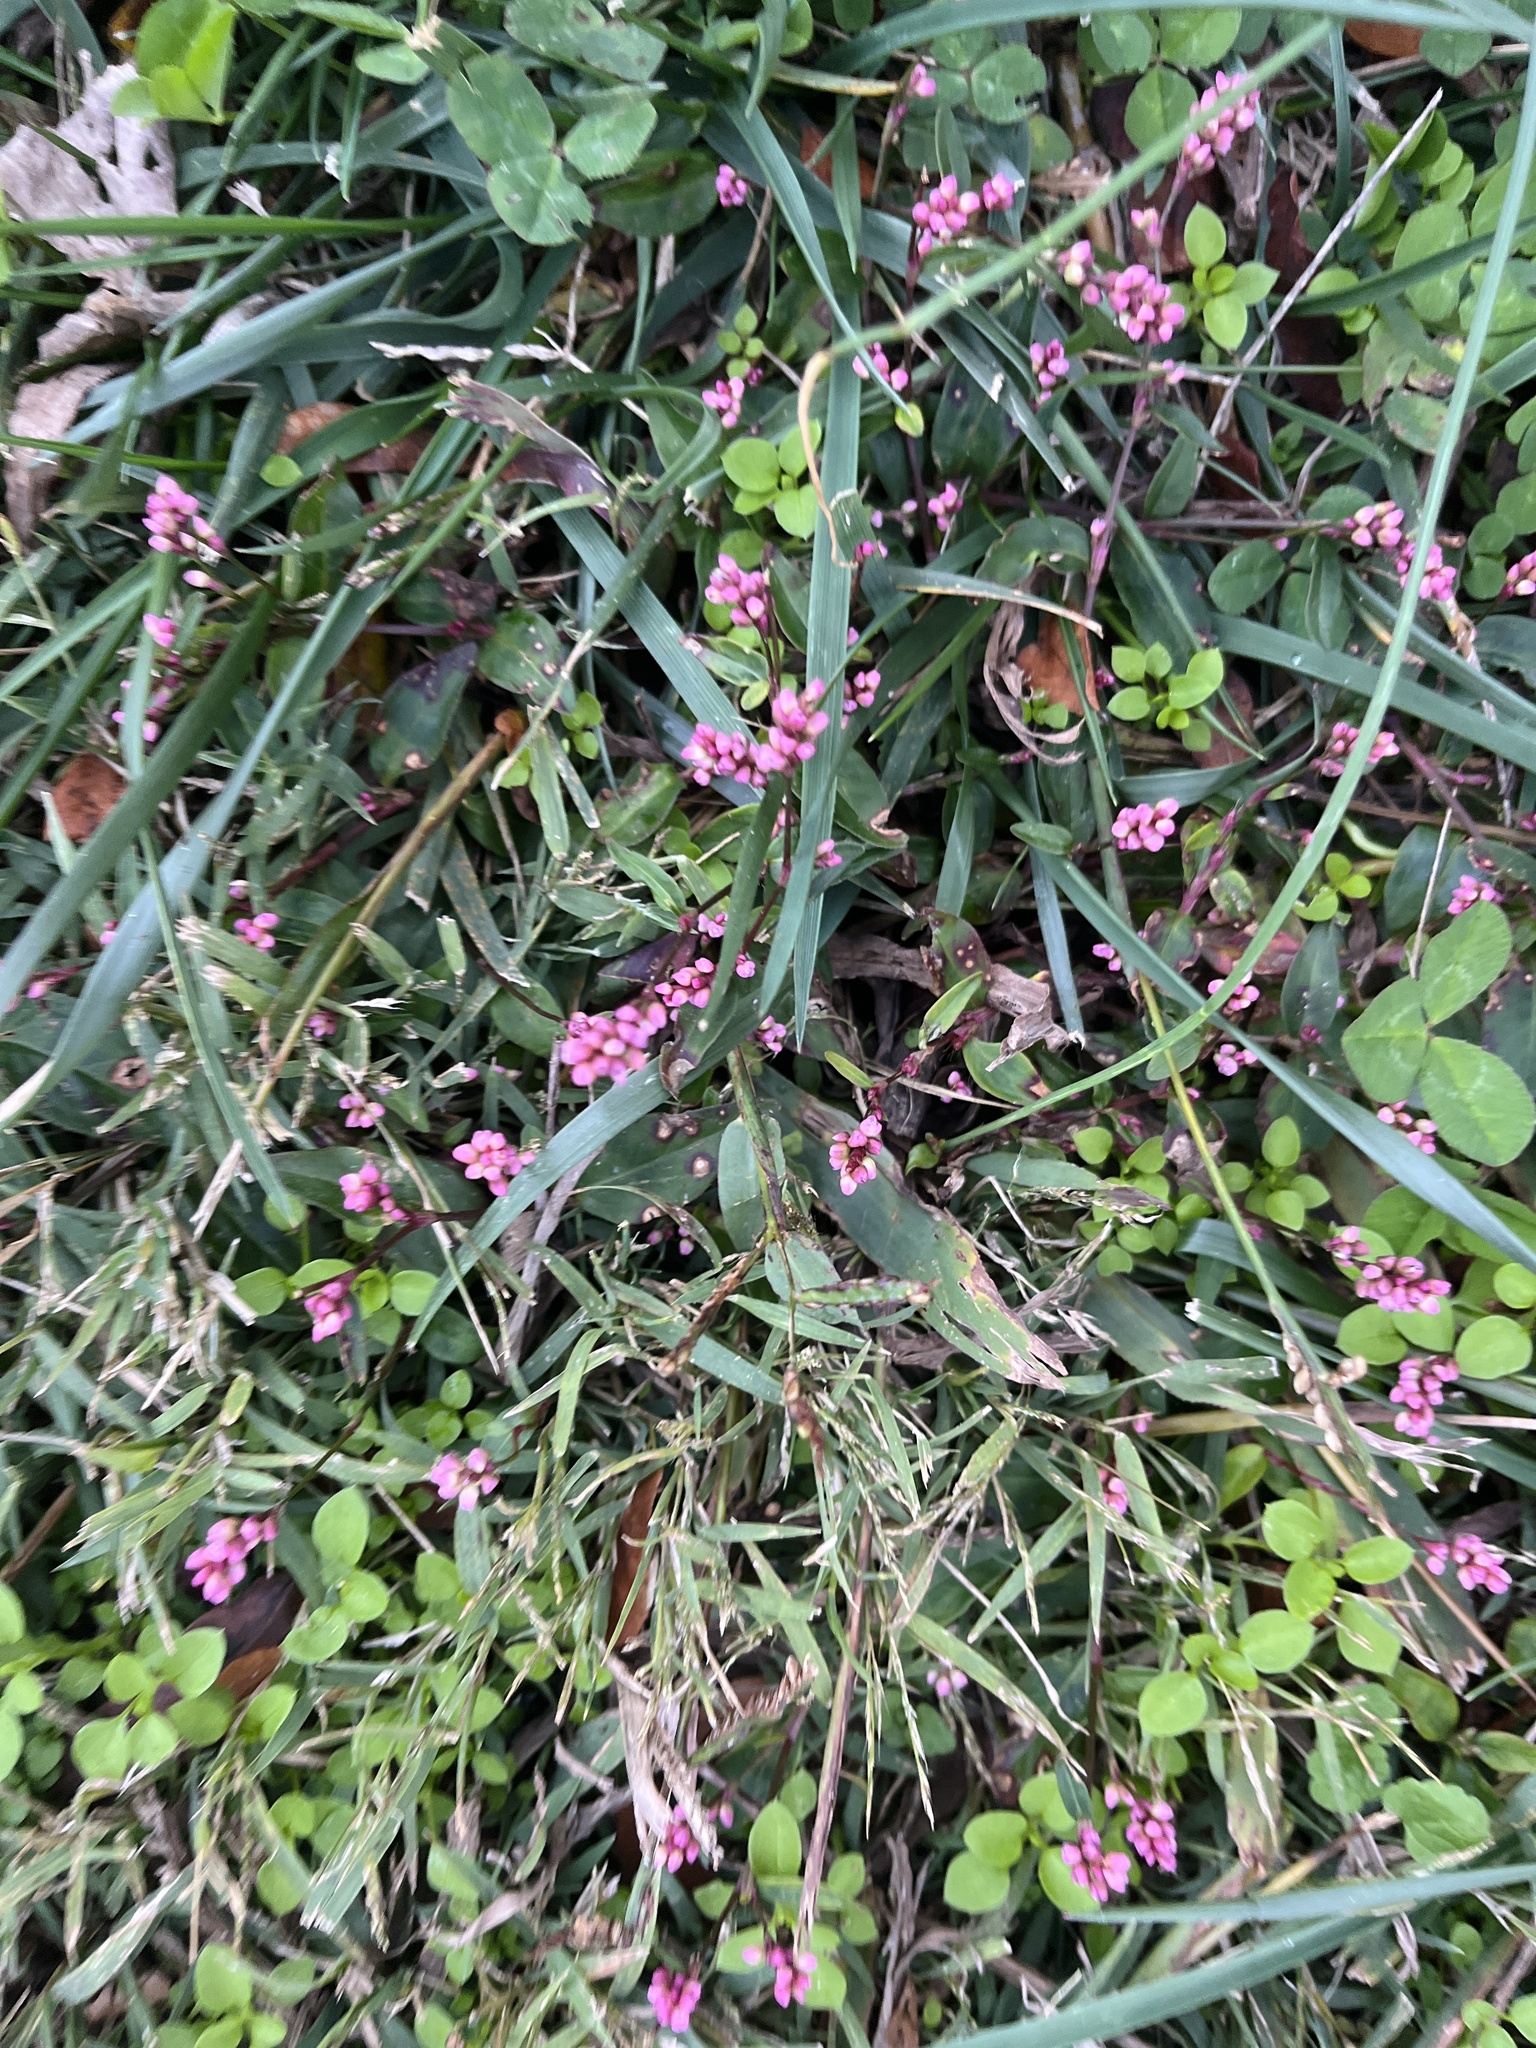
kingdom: Plantae
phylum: Tracheophyta
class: Magnoliopsida
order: Caryophyllales
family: Polygonaceae
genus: Persicaria
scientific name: Persicaria longiseta
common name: Bristly lady's-thumb
